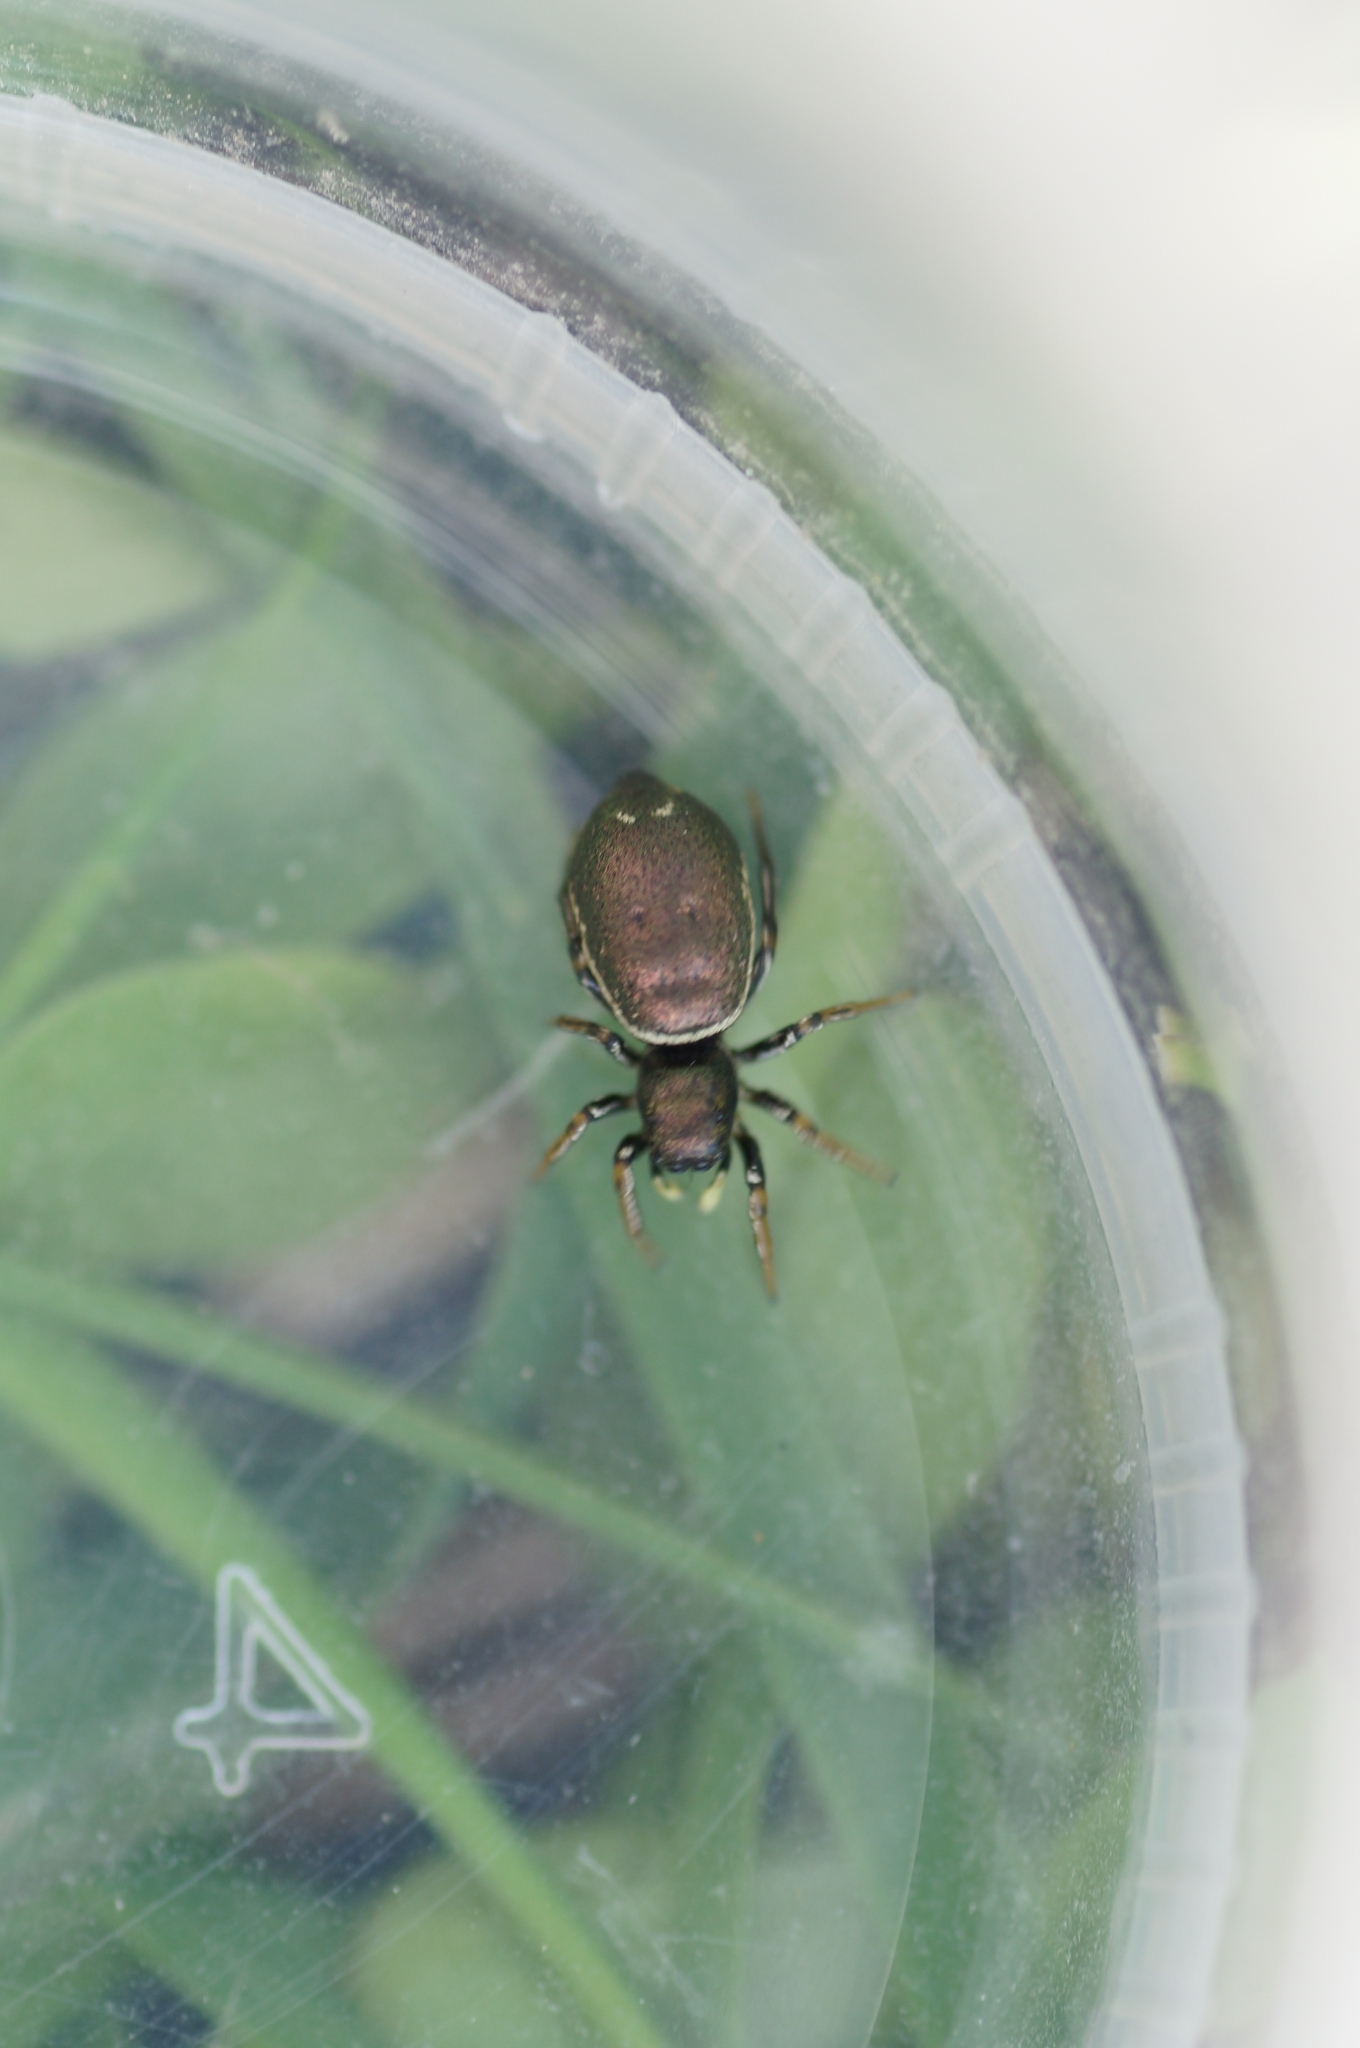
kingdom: Animalia
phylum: Arthropoda
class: Arachnida
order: Araneae
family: Salticidae
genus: Heliophanus
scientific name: Heliophanus auratus
